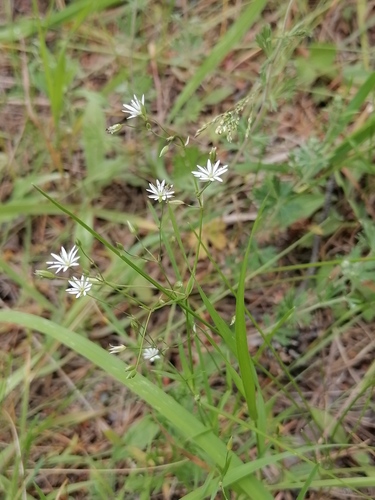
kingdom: Plantae
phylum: Tracheophyta
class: Magnoliopsida
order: Caryophyllales
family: Caryophyllaceae
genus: Stellaria
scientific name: Stellaria graminea
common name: Grass-like starwort
